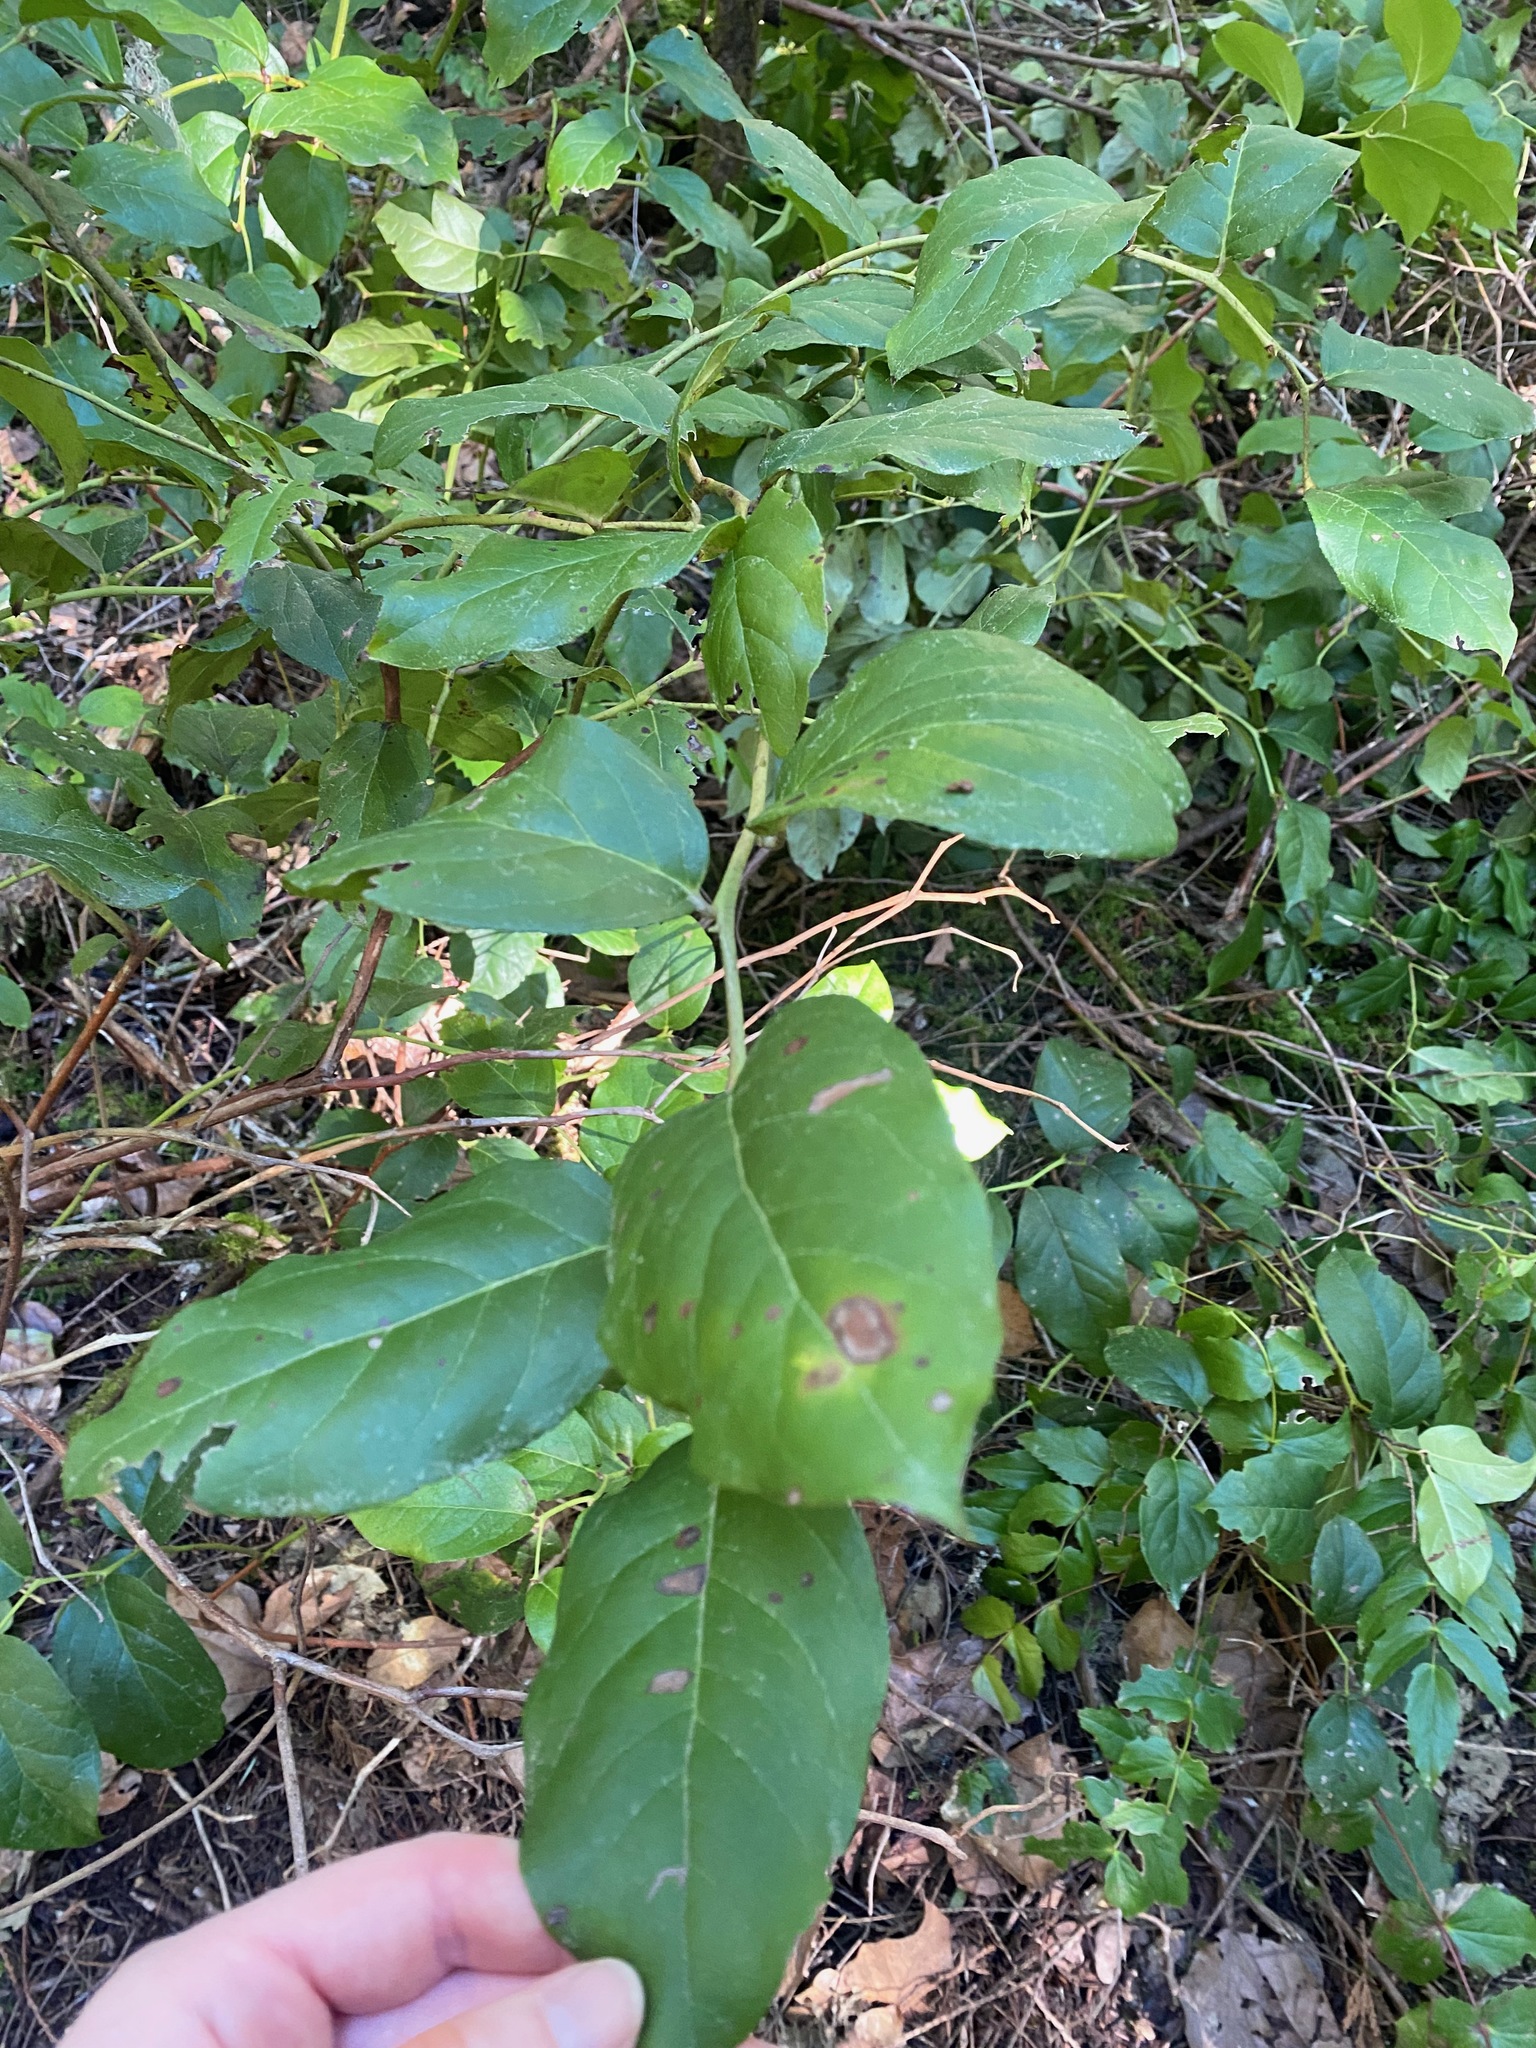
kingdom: Plantae
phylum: Tracheophyta
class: Magnoliopsida
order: Ericales
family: Ericaceae
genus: Gaultheria
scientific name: Gaultheria shallon
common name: Shallon
